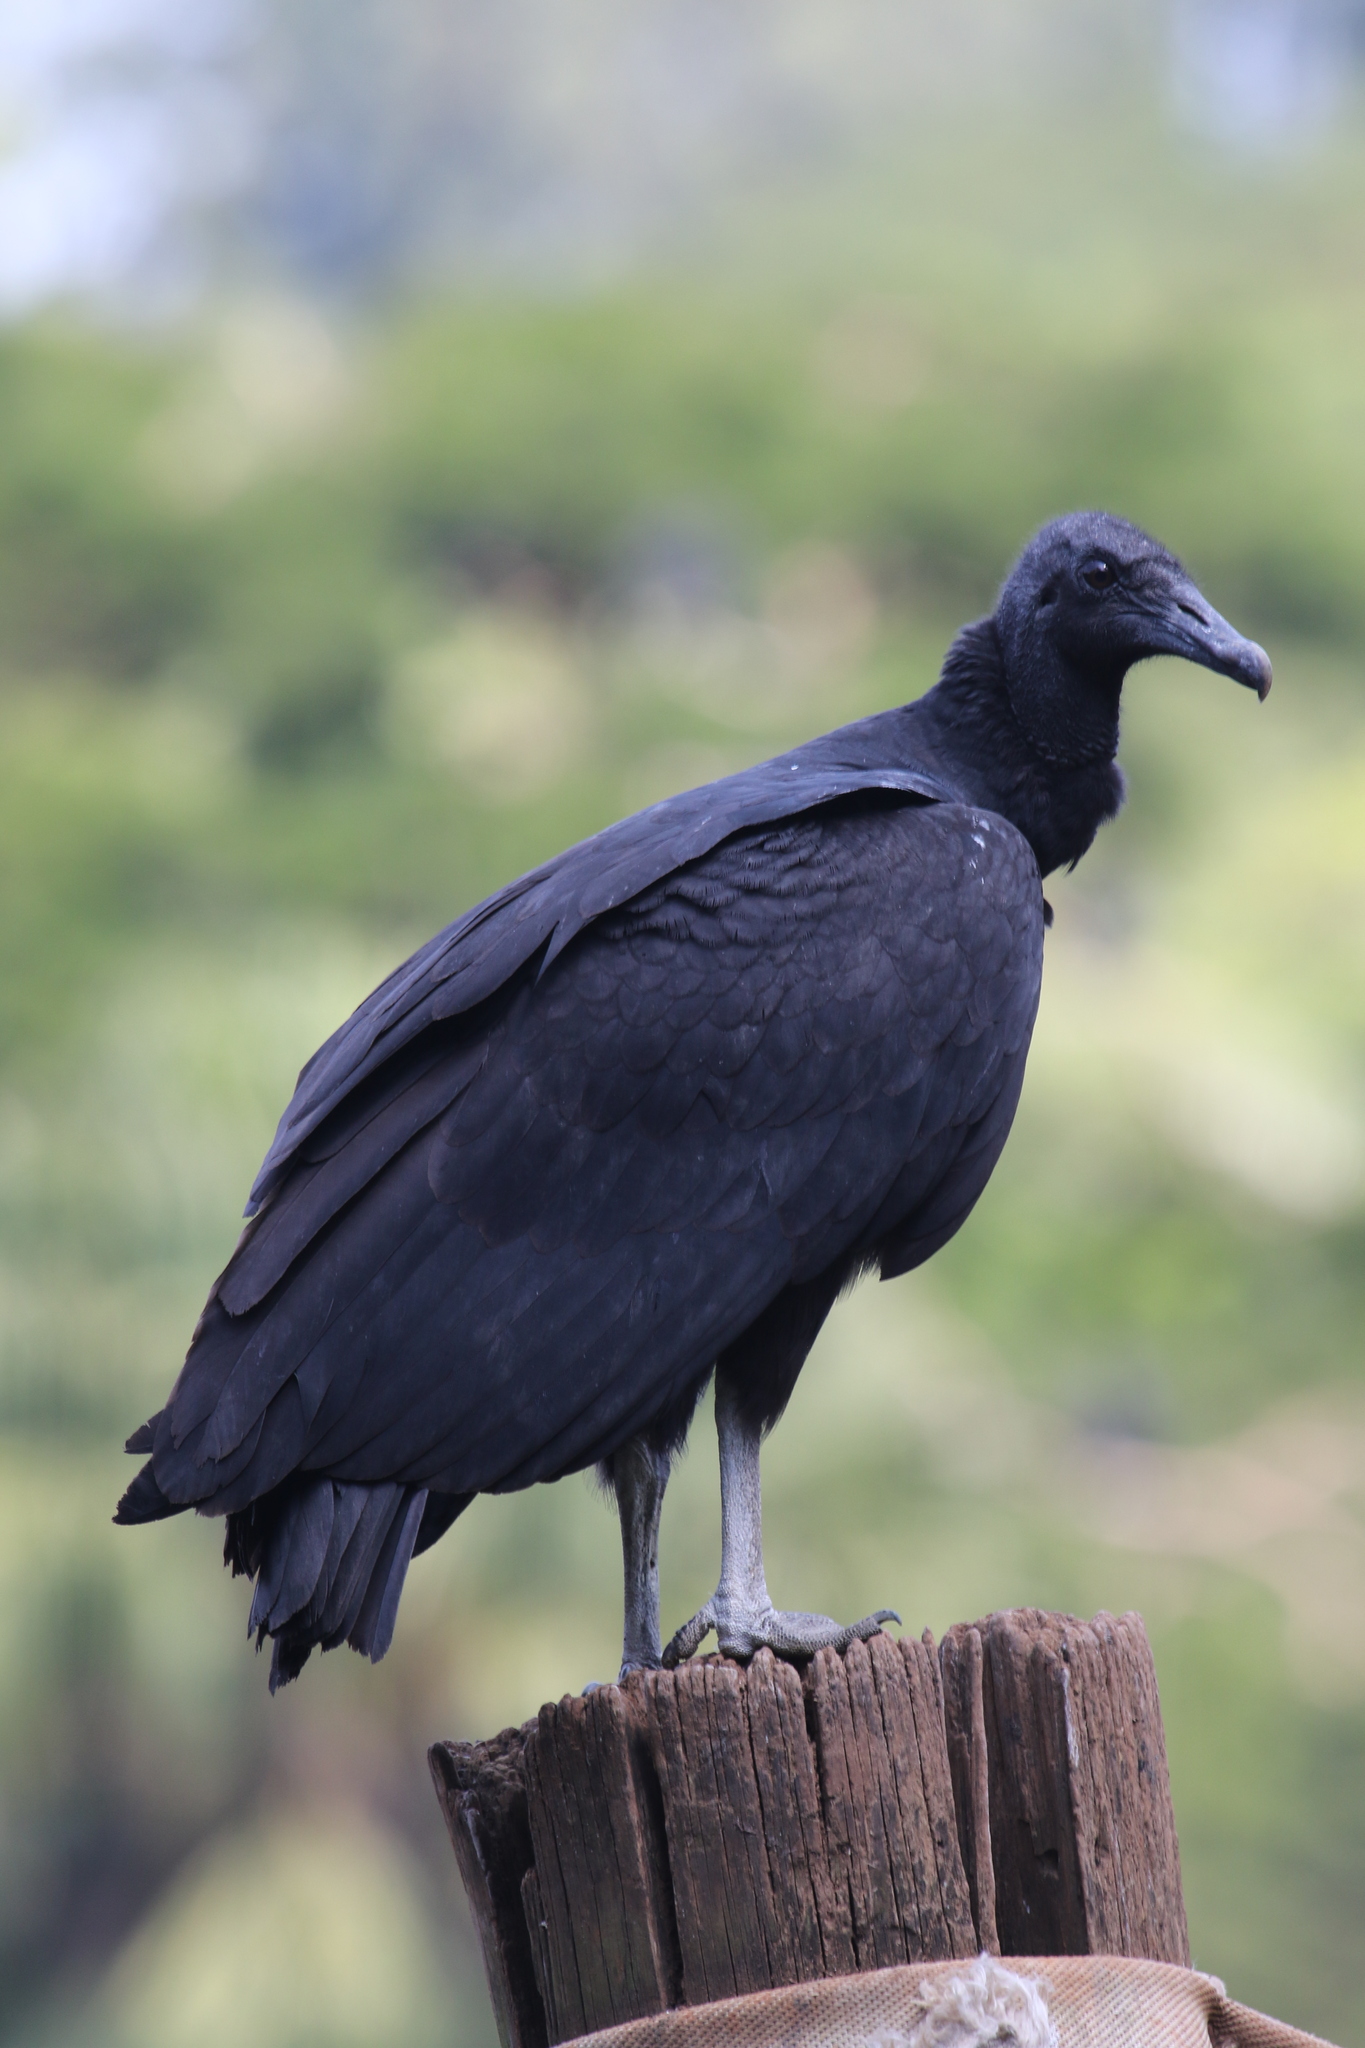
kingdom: Animalia
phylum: Chordata
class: Aves
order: Accipitriformes
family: Cathartidae
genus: Coragyps
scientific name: Coragyps atratus
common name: Black vulture
